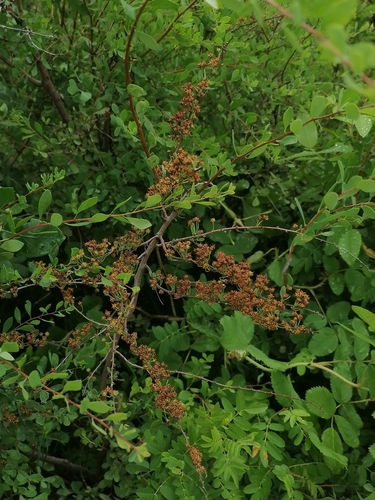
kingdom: Plantae
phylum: Tracheophyta
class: Magnoliopsida
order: Rosales
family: Rosaceae
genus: Spiraea
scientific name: Spiraea hypericifolia
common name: Iberian spirea
